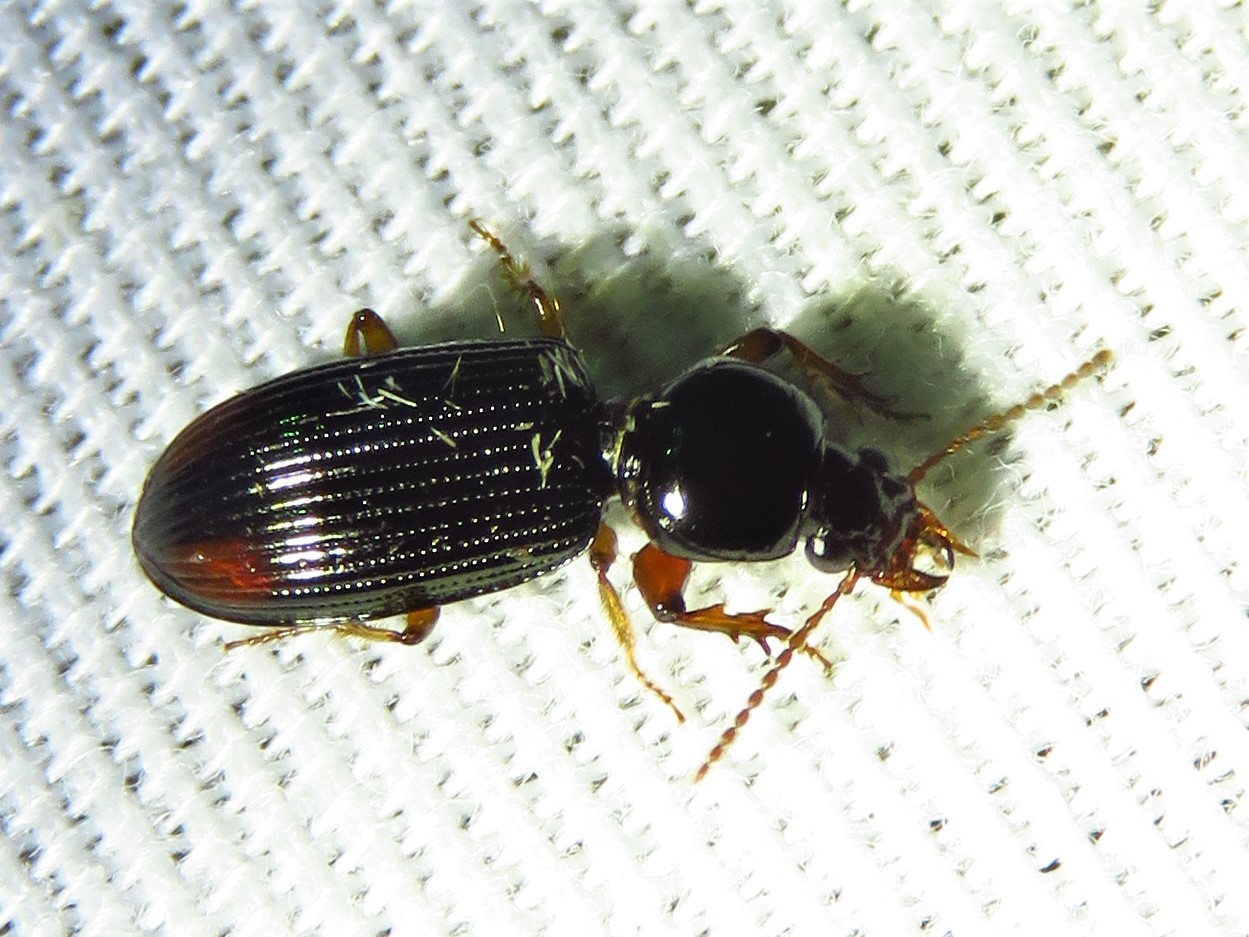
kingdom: Animalia
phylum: Arthropoda
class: Insecta
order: Coleoptera
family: Carabidae
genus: Aspidoglossa
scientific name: Aspidoglossa subangulata
